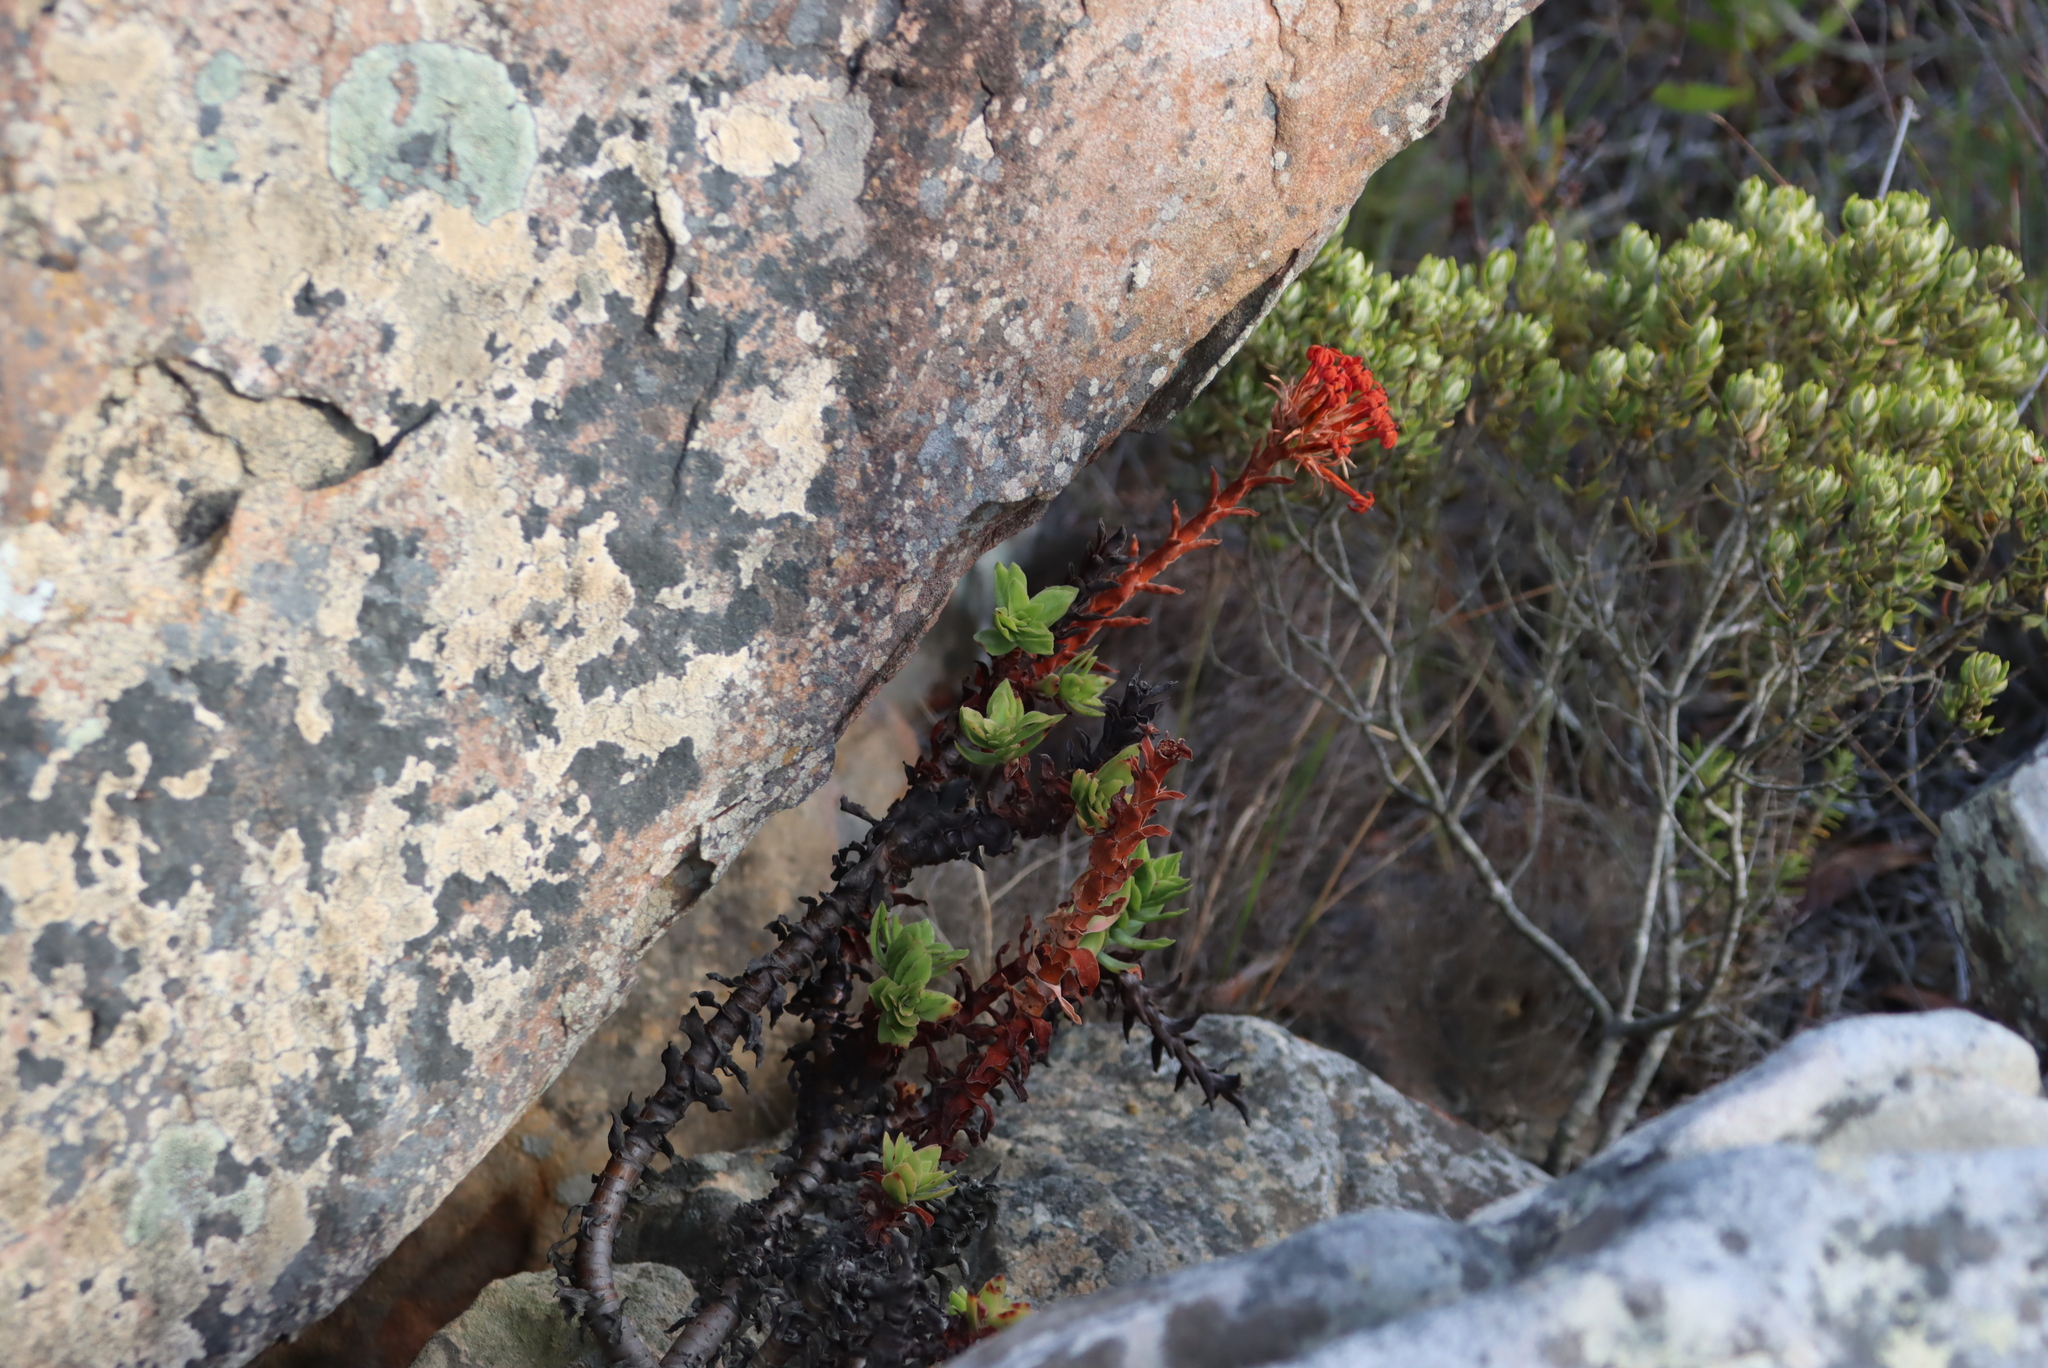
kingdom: Plantae
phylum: Tracheophyta
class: Magnoliopsida
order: Saxifragales
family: Crassulaceae
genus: Crassula
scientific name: Crassula coccinea
